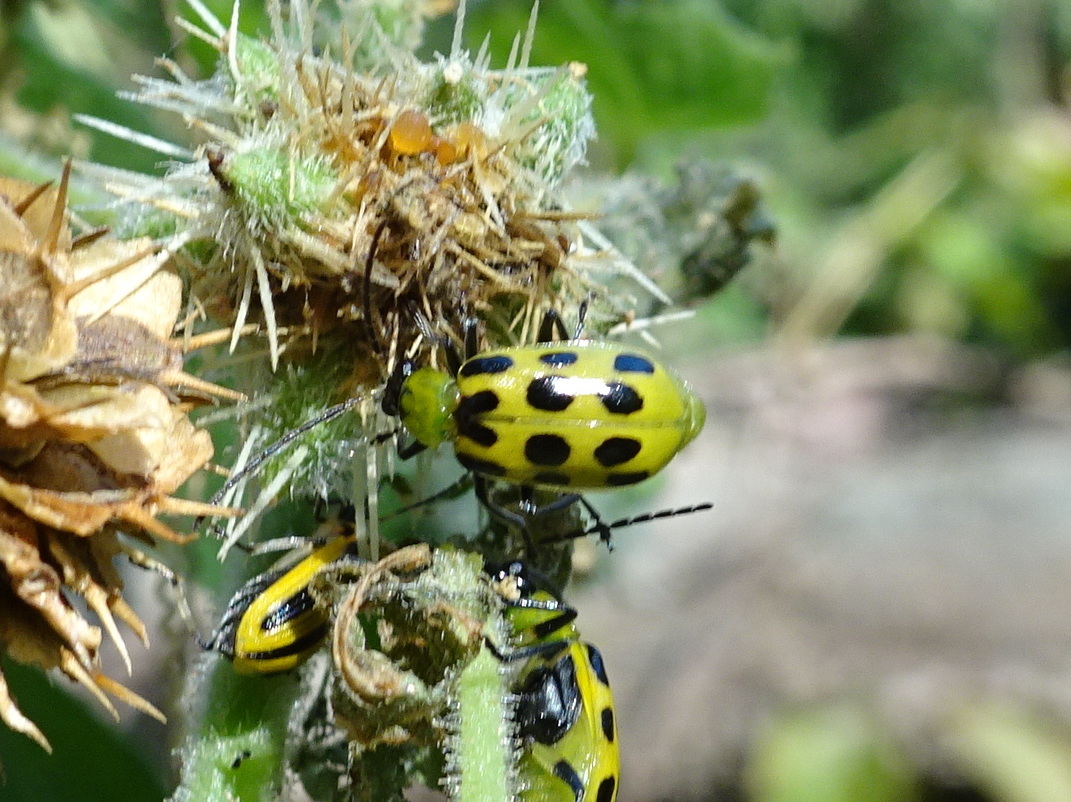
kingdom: Animalia
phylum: Arthropoda
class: Insecta
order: Coleoptera
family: Chrysomelidae
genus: Diabrotica
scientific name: Diabrotica undecimpunctata
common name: Spotted cucumber beetle
